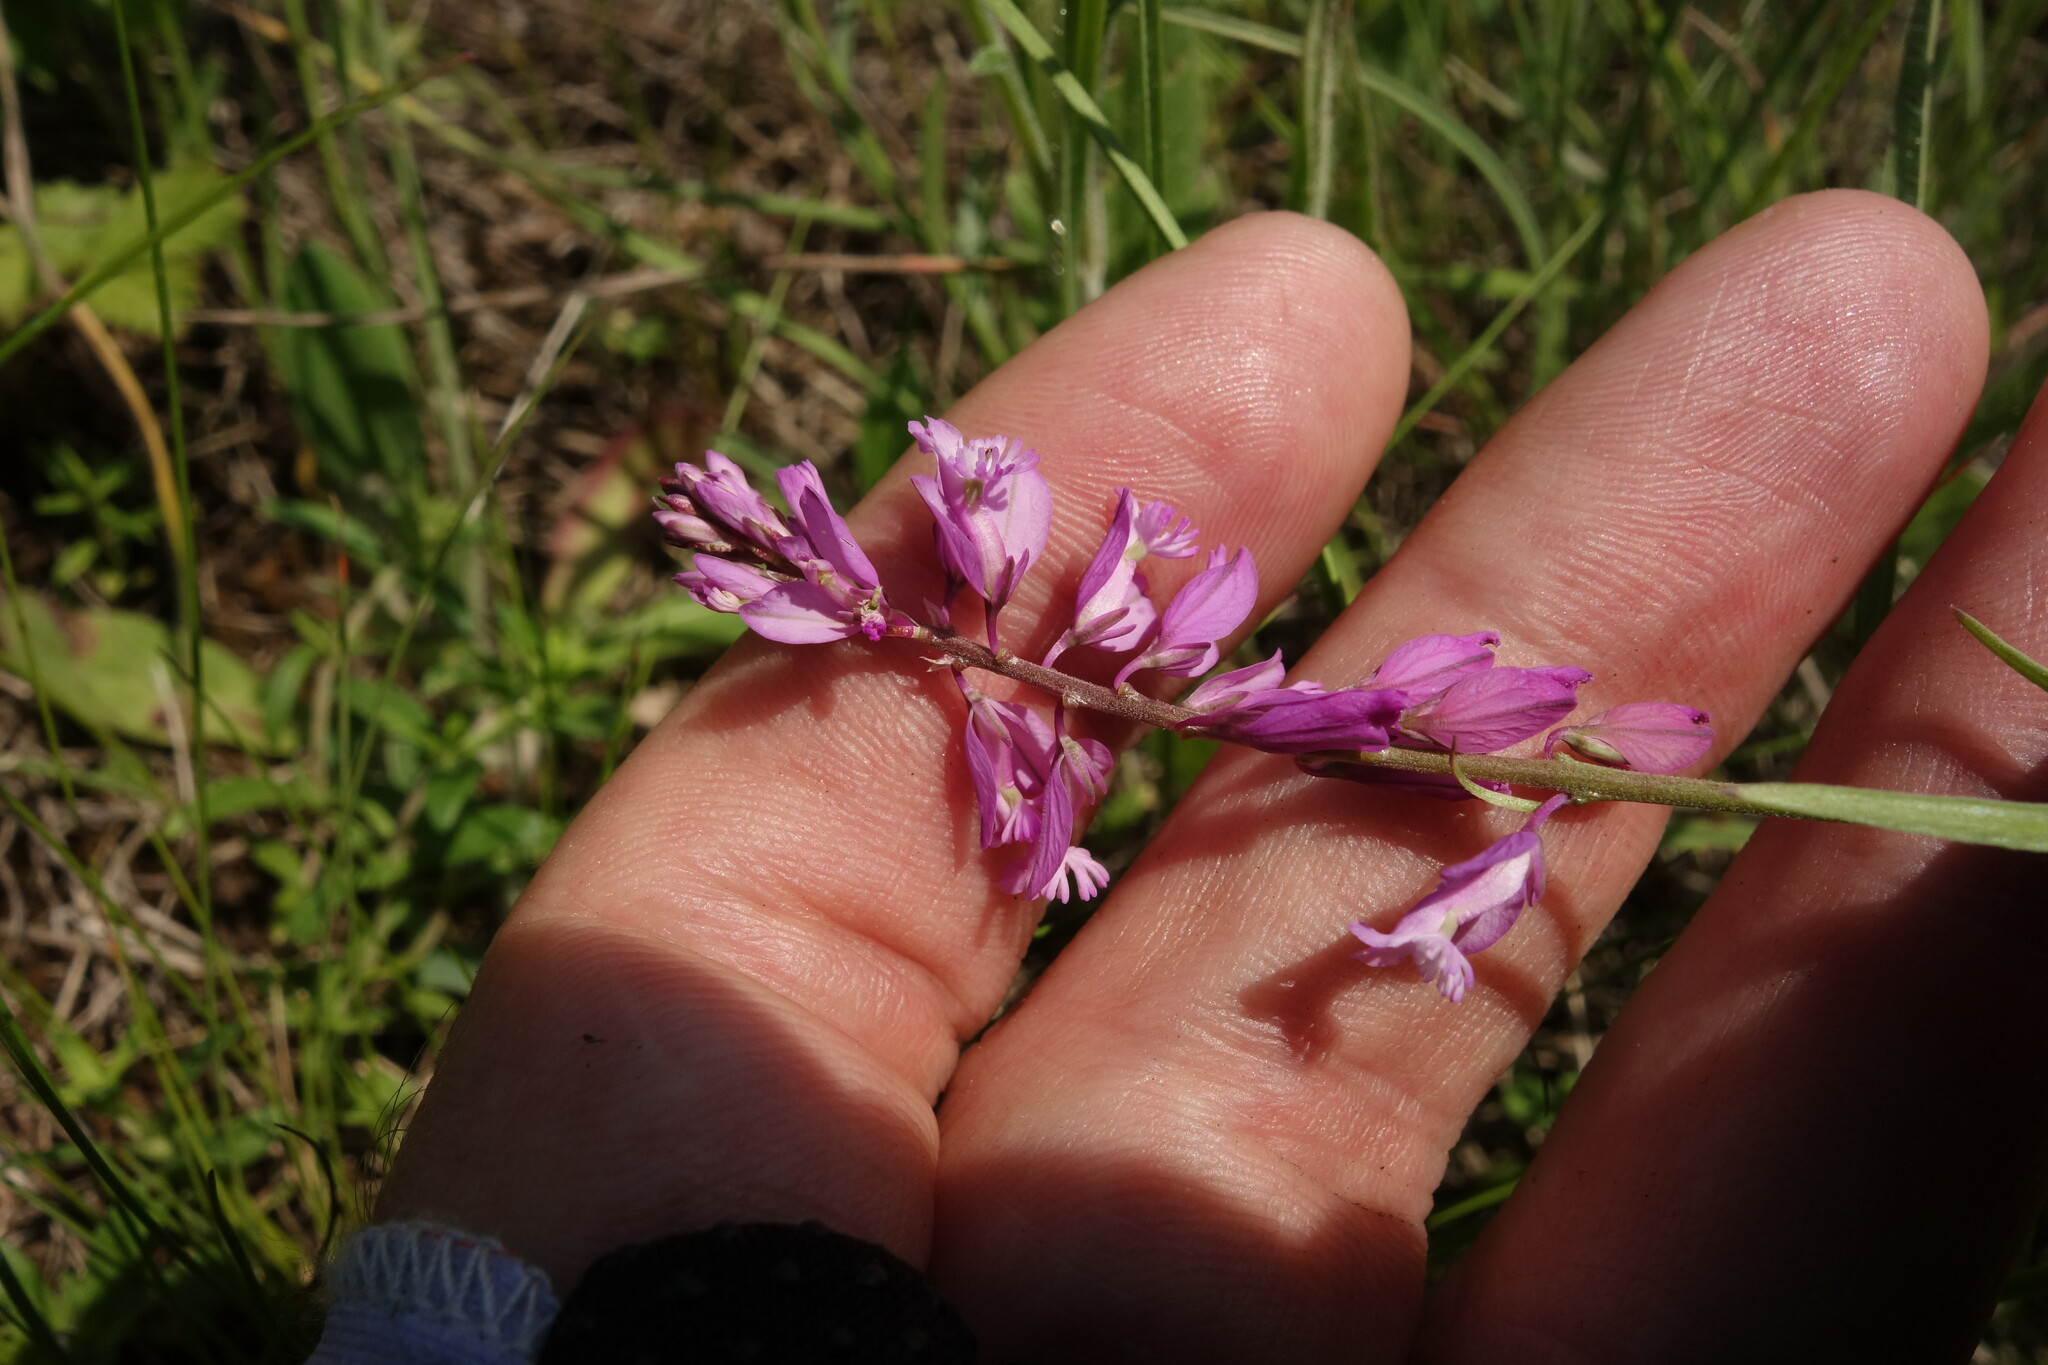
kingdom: Plantae
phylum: Tracheophyta
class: Magnoliopsida
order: Fabales
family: Polygalaceae
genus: Polygala
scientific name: Polygala nicaeensis
